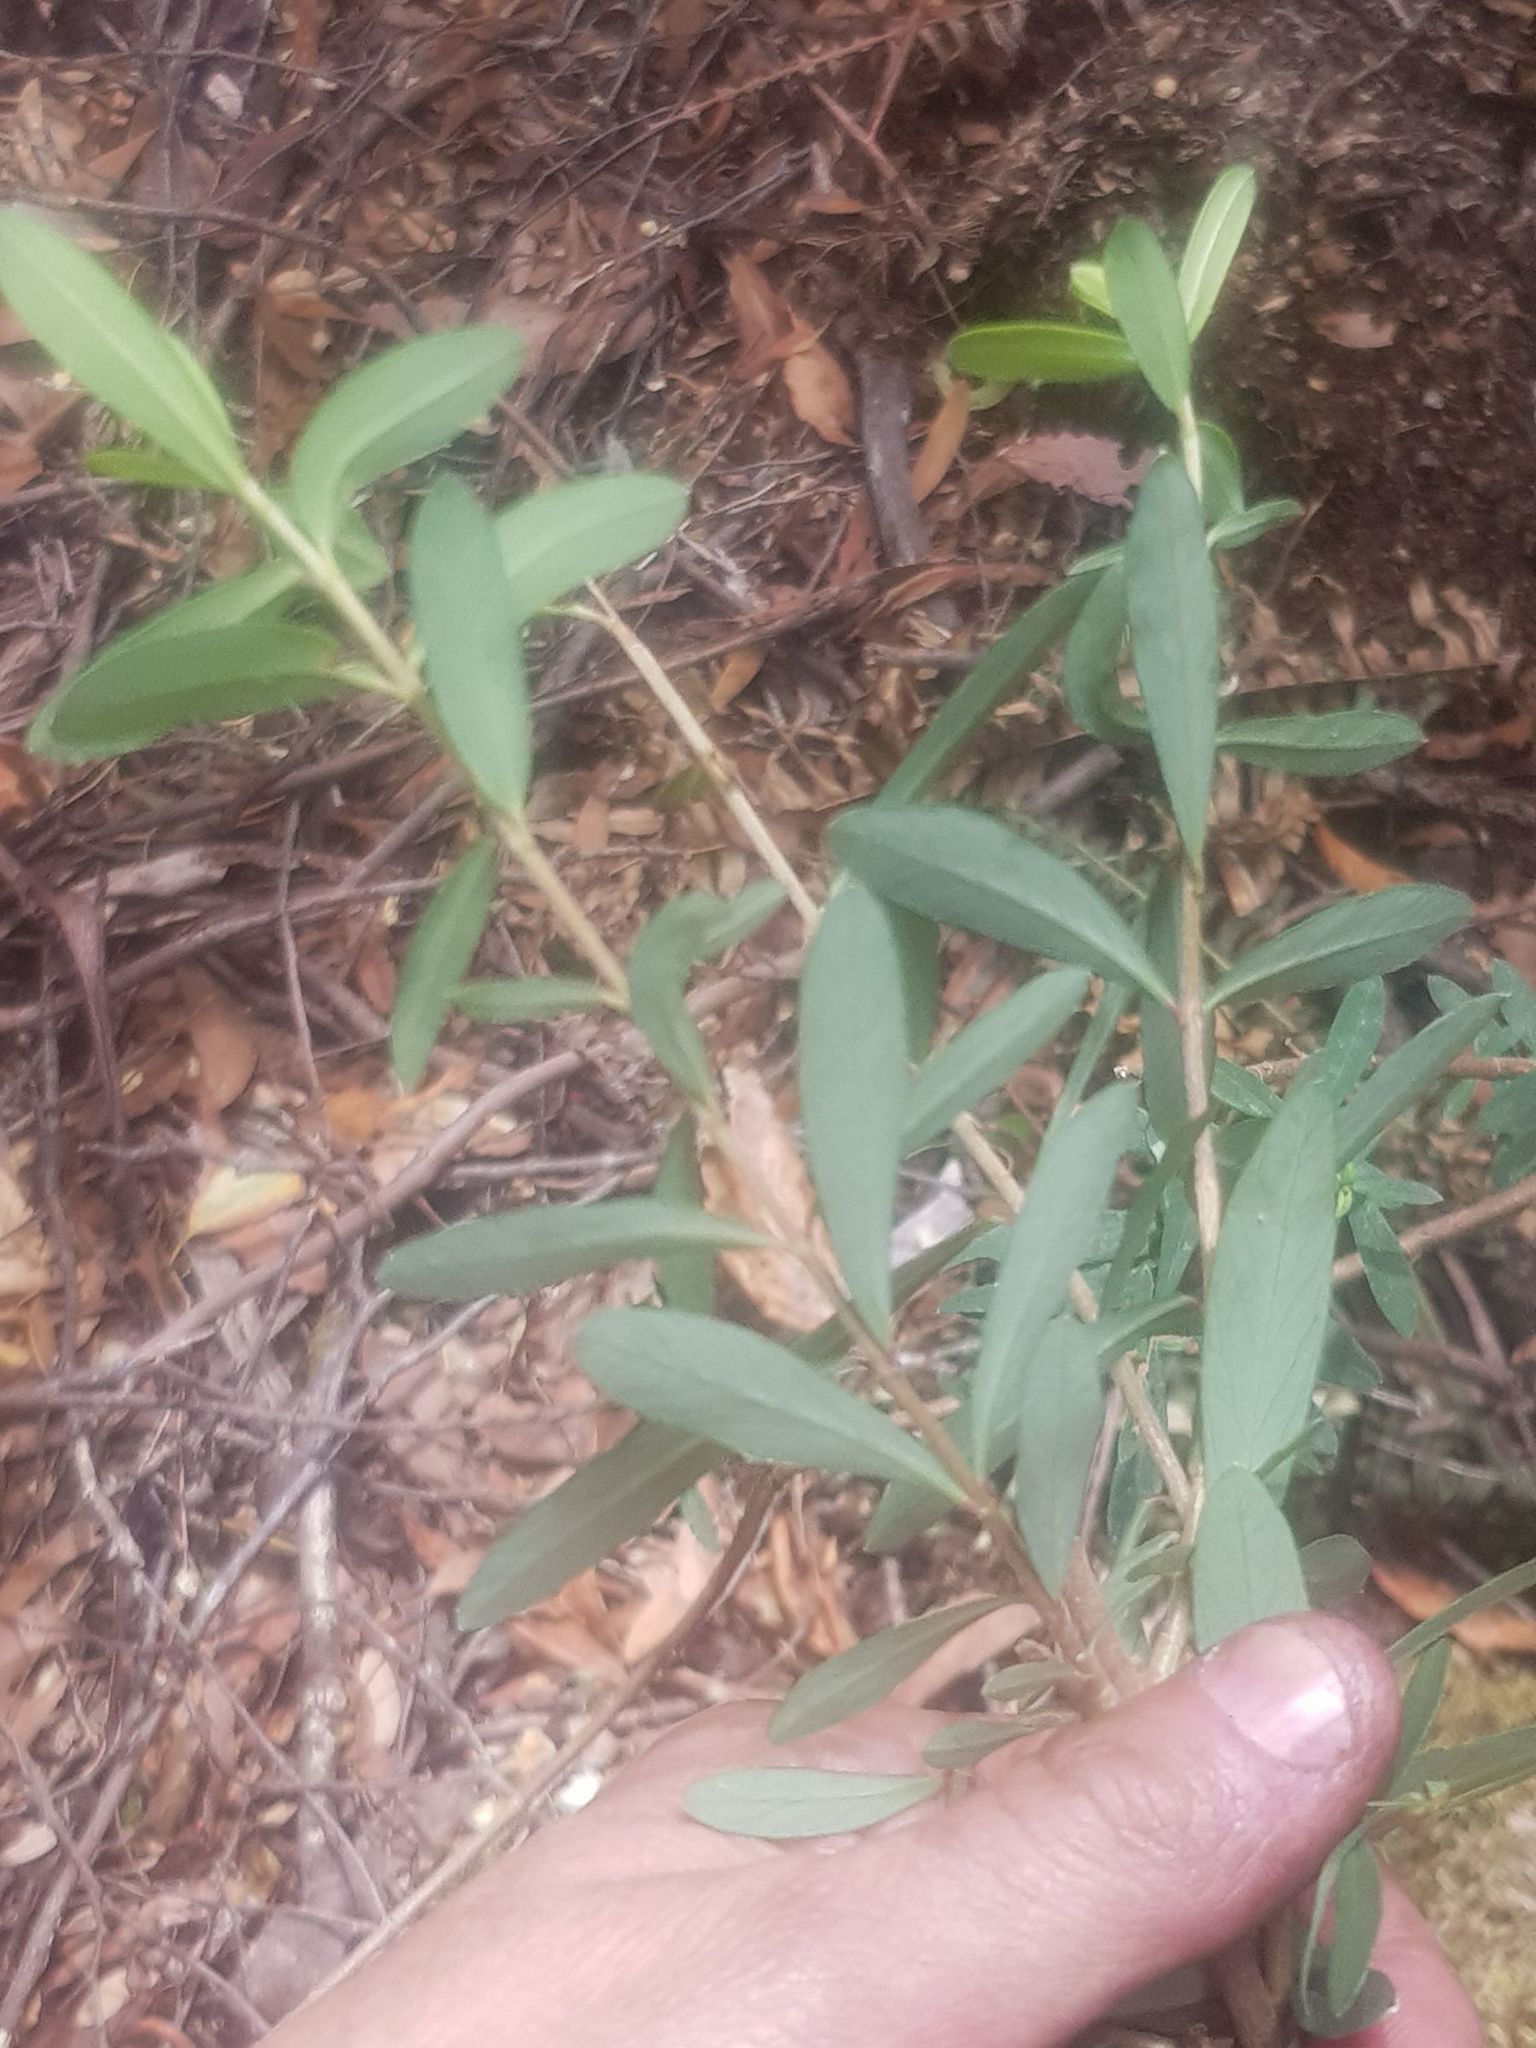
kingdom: Plantae
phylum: Tracheophyta
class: Magnoliopsida
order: Malvales
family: Thymelaeaceae
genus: Pimelea
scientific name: Pimelea drupacea
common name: Cherry riceflower
